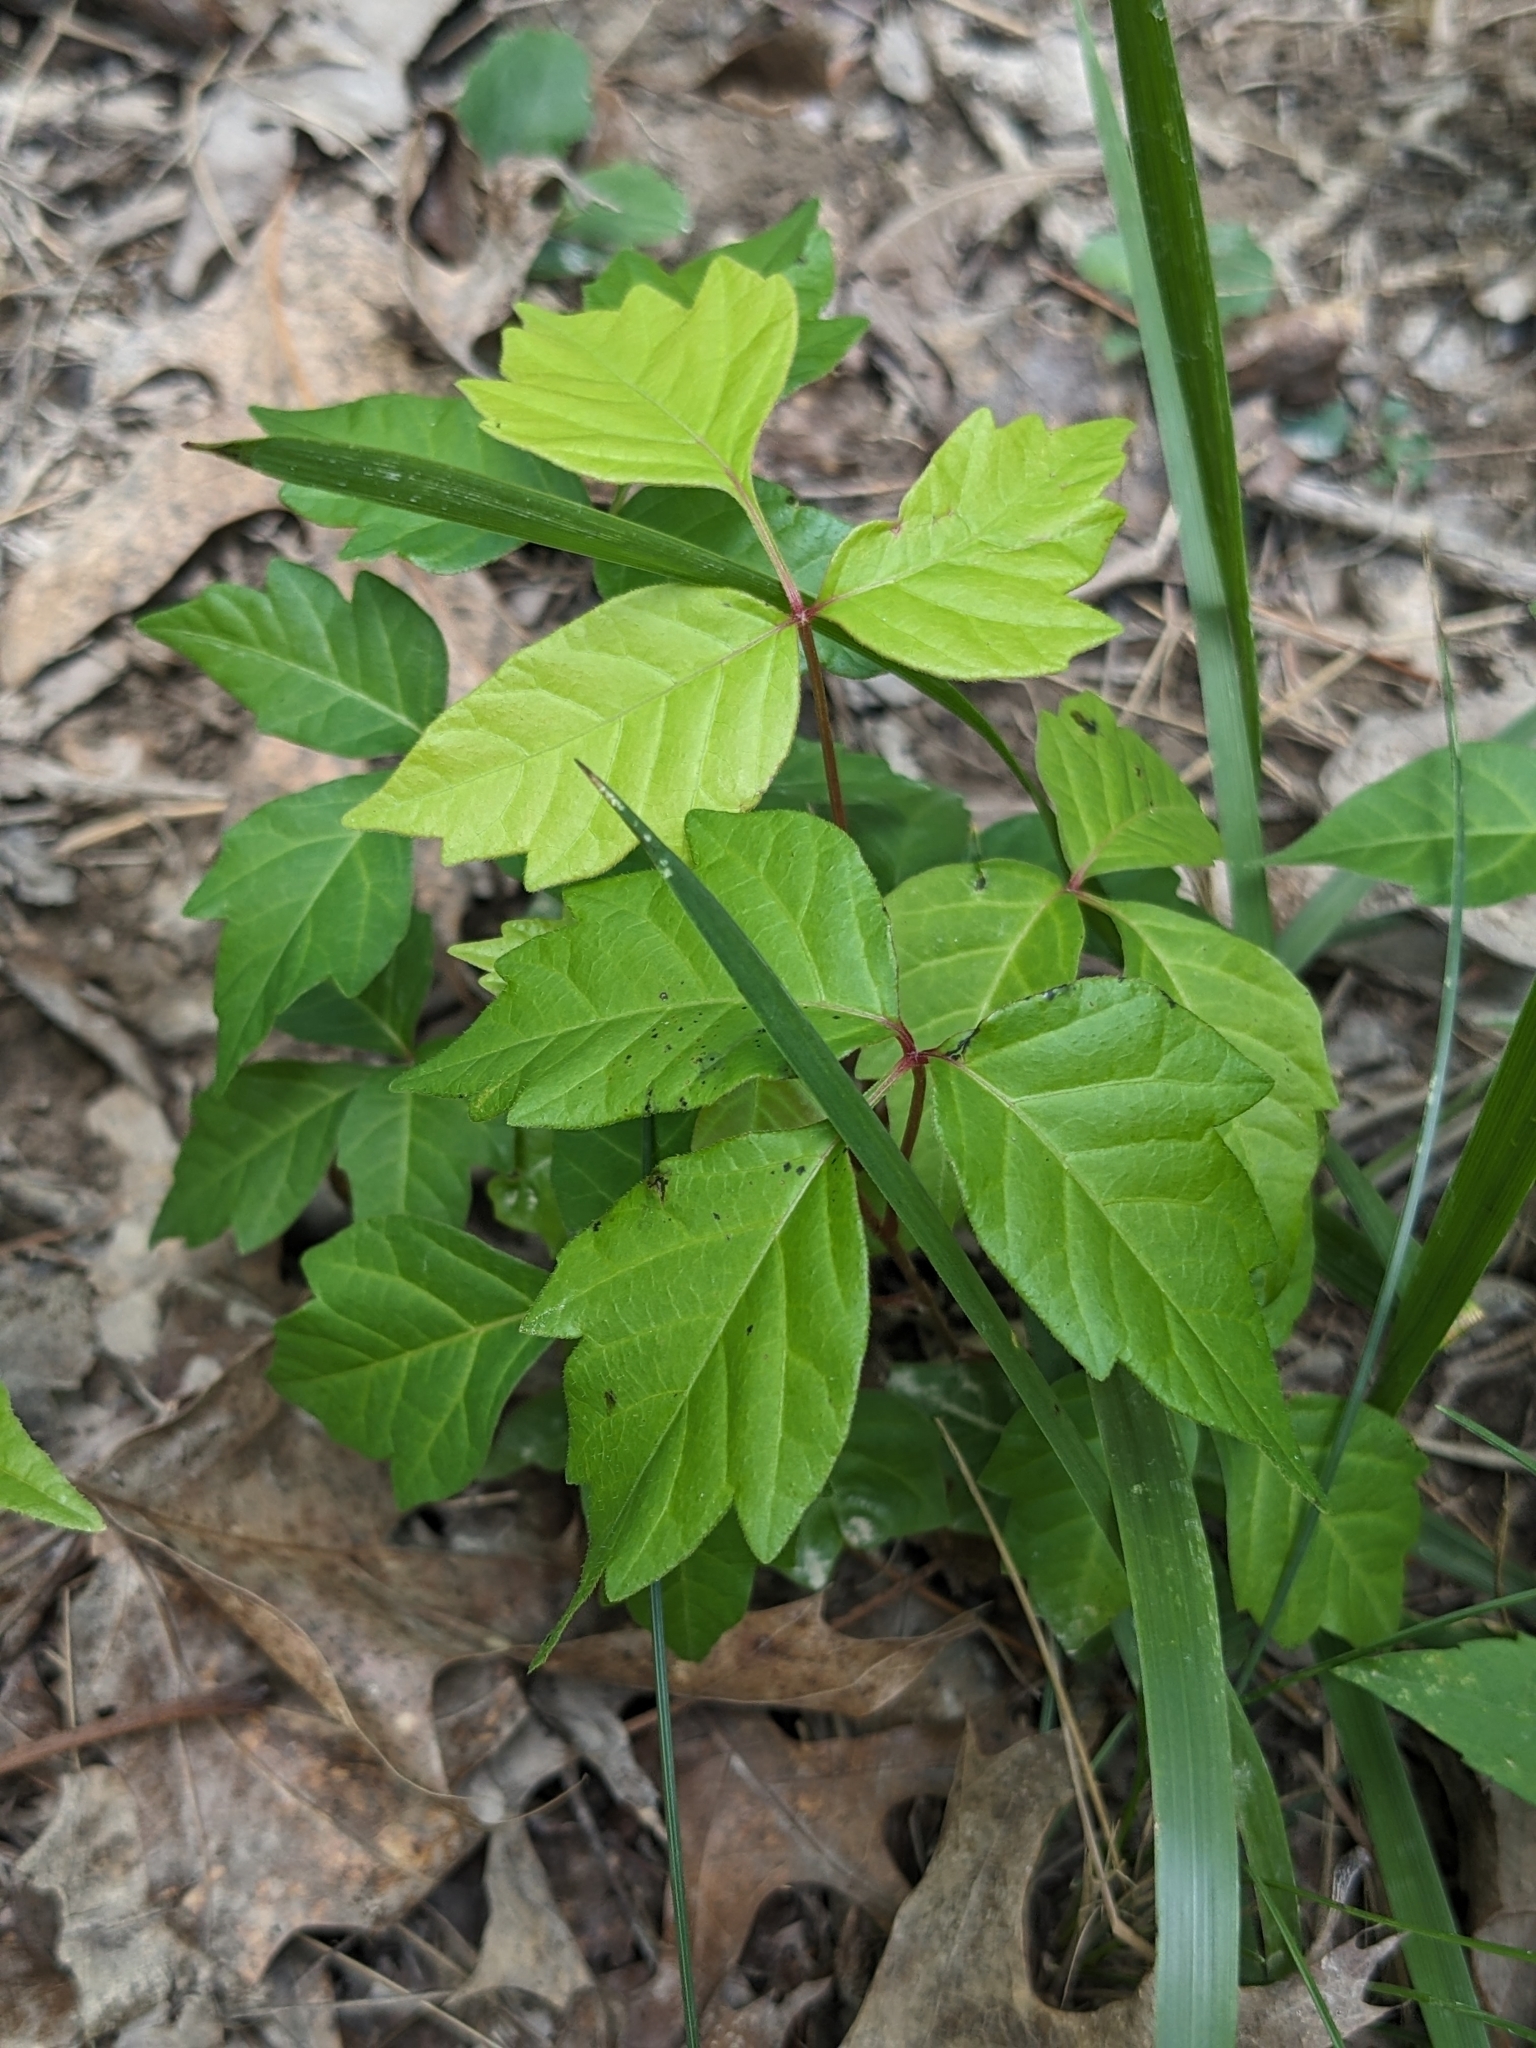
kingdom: Plantae
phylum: Tracheophyta
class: Magnoliopsida
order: Sapindales
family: Anacardiaceae
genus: Toxicodendron
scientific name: Toxicodendron radicans
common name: Poison ivy
